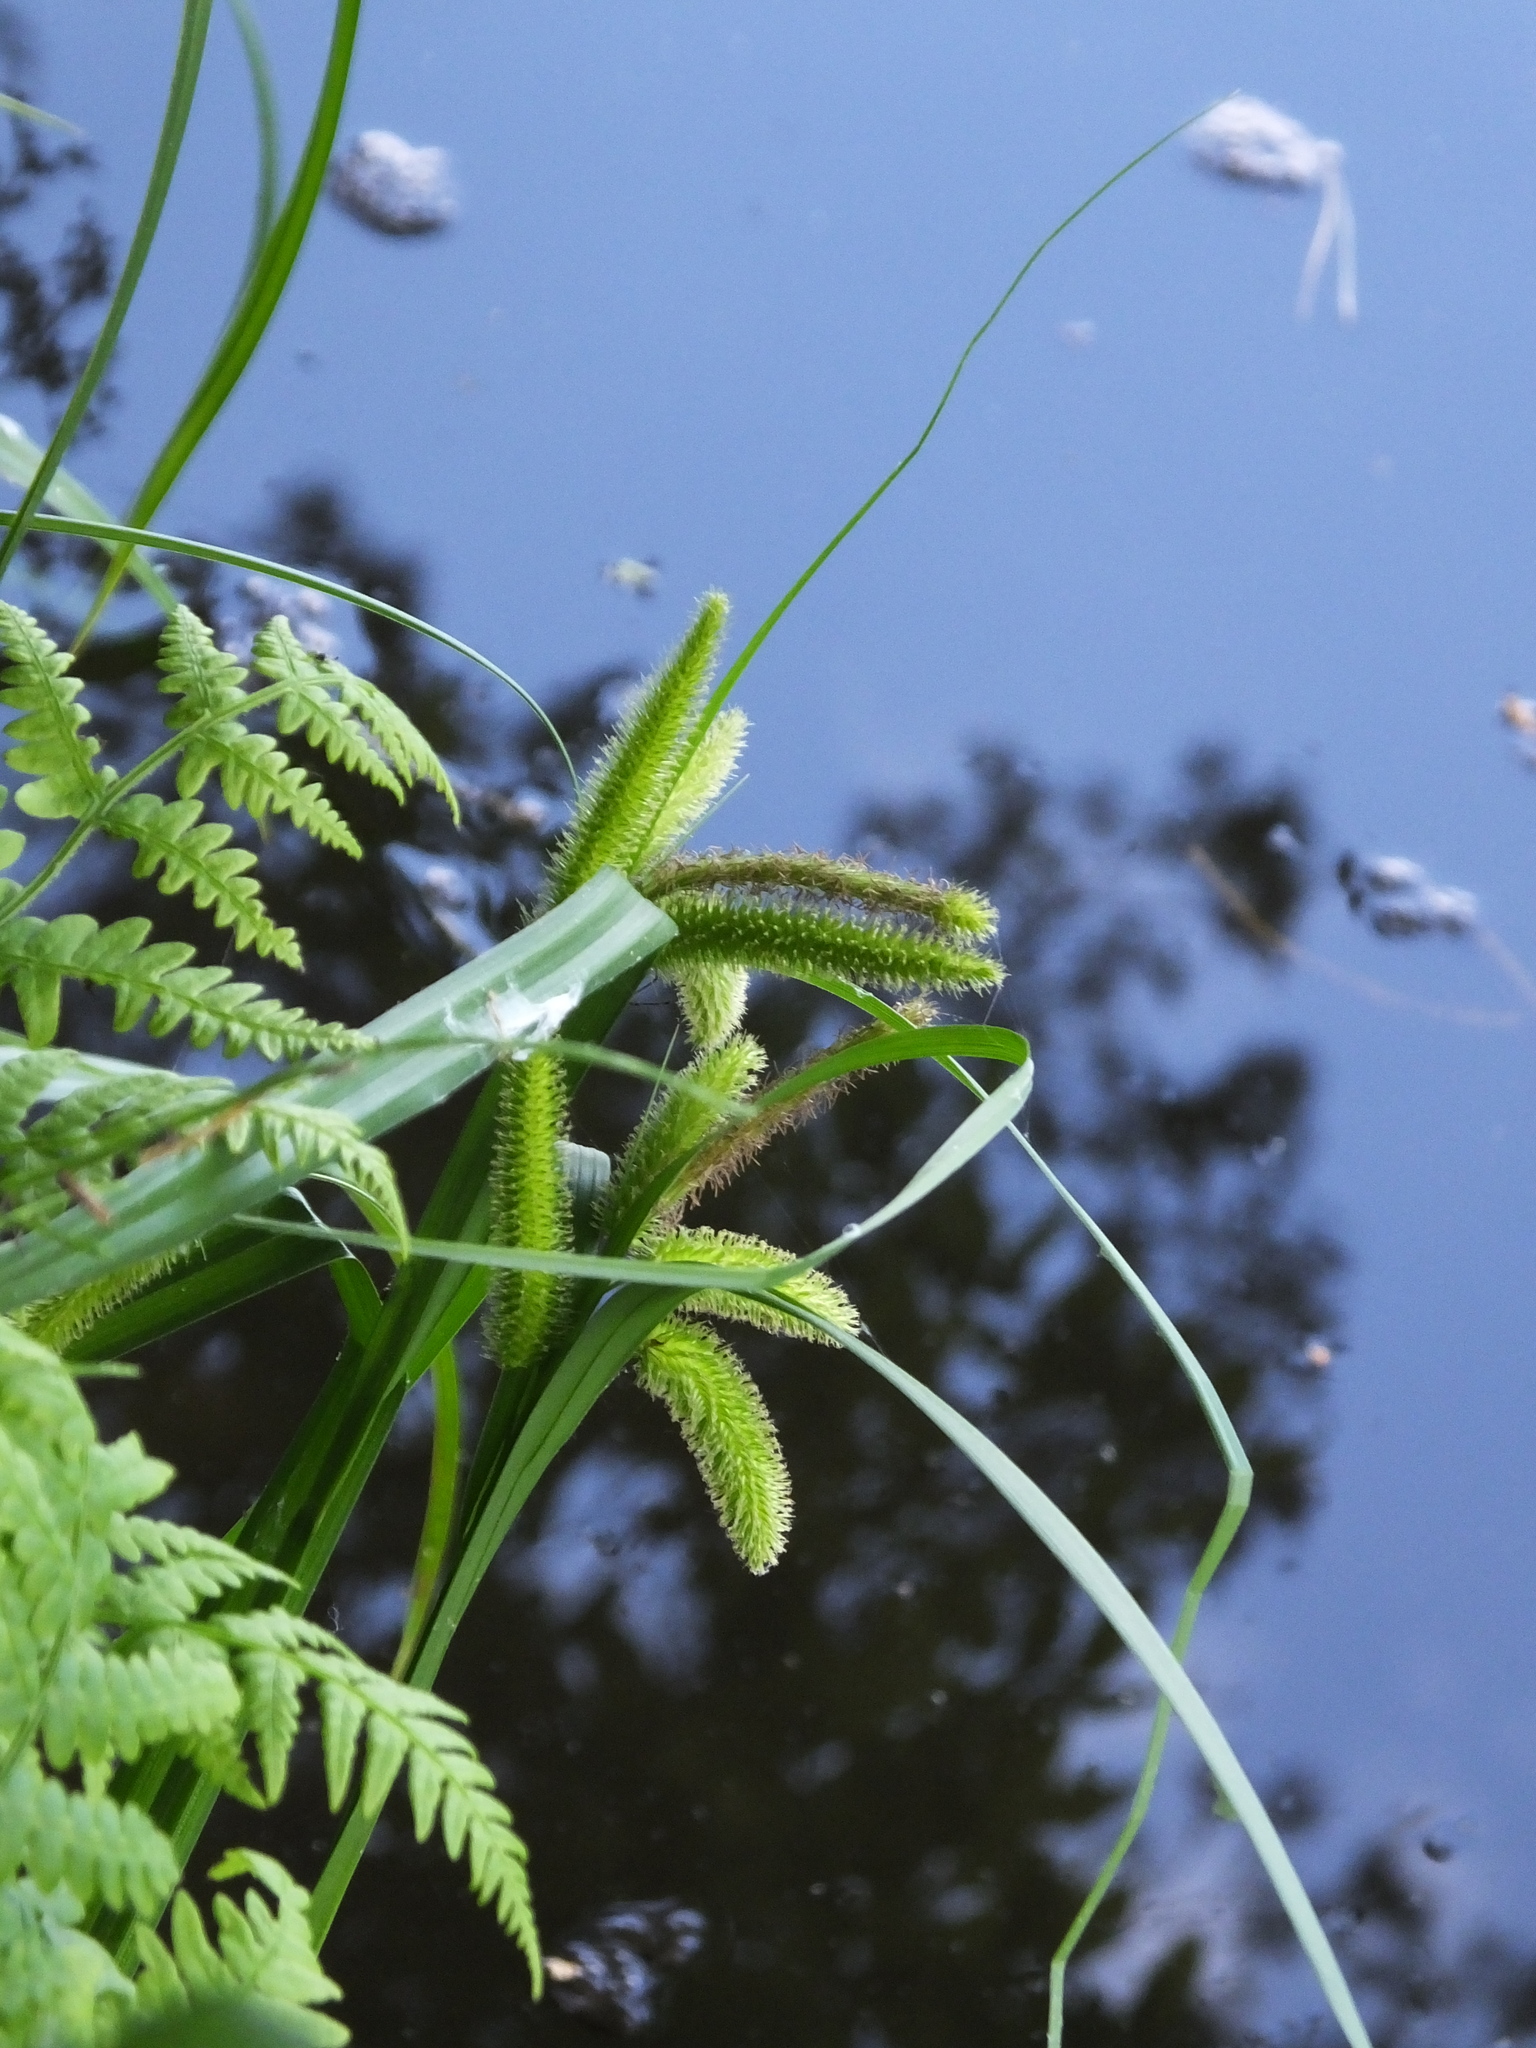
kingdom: Plantae
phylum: Tracheophyta
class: Liliopsida
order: Poales
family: Cyperaceae
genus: Carex
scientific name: Carex pseudocyperus
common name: Cyperus sedge
